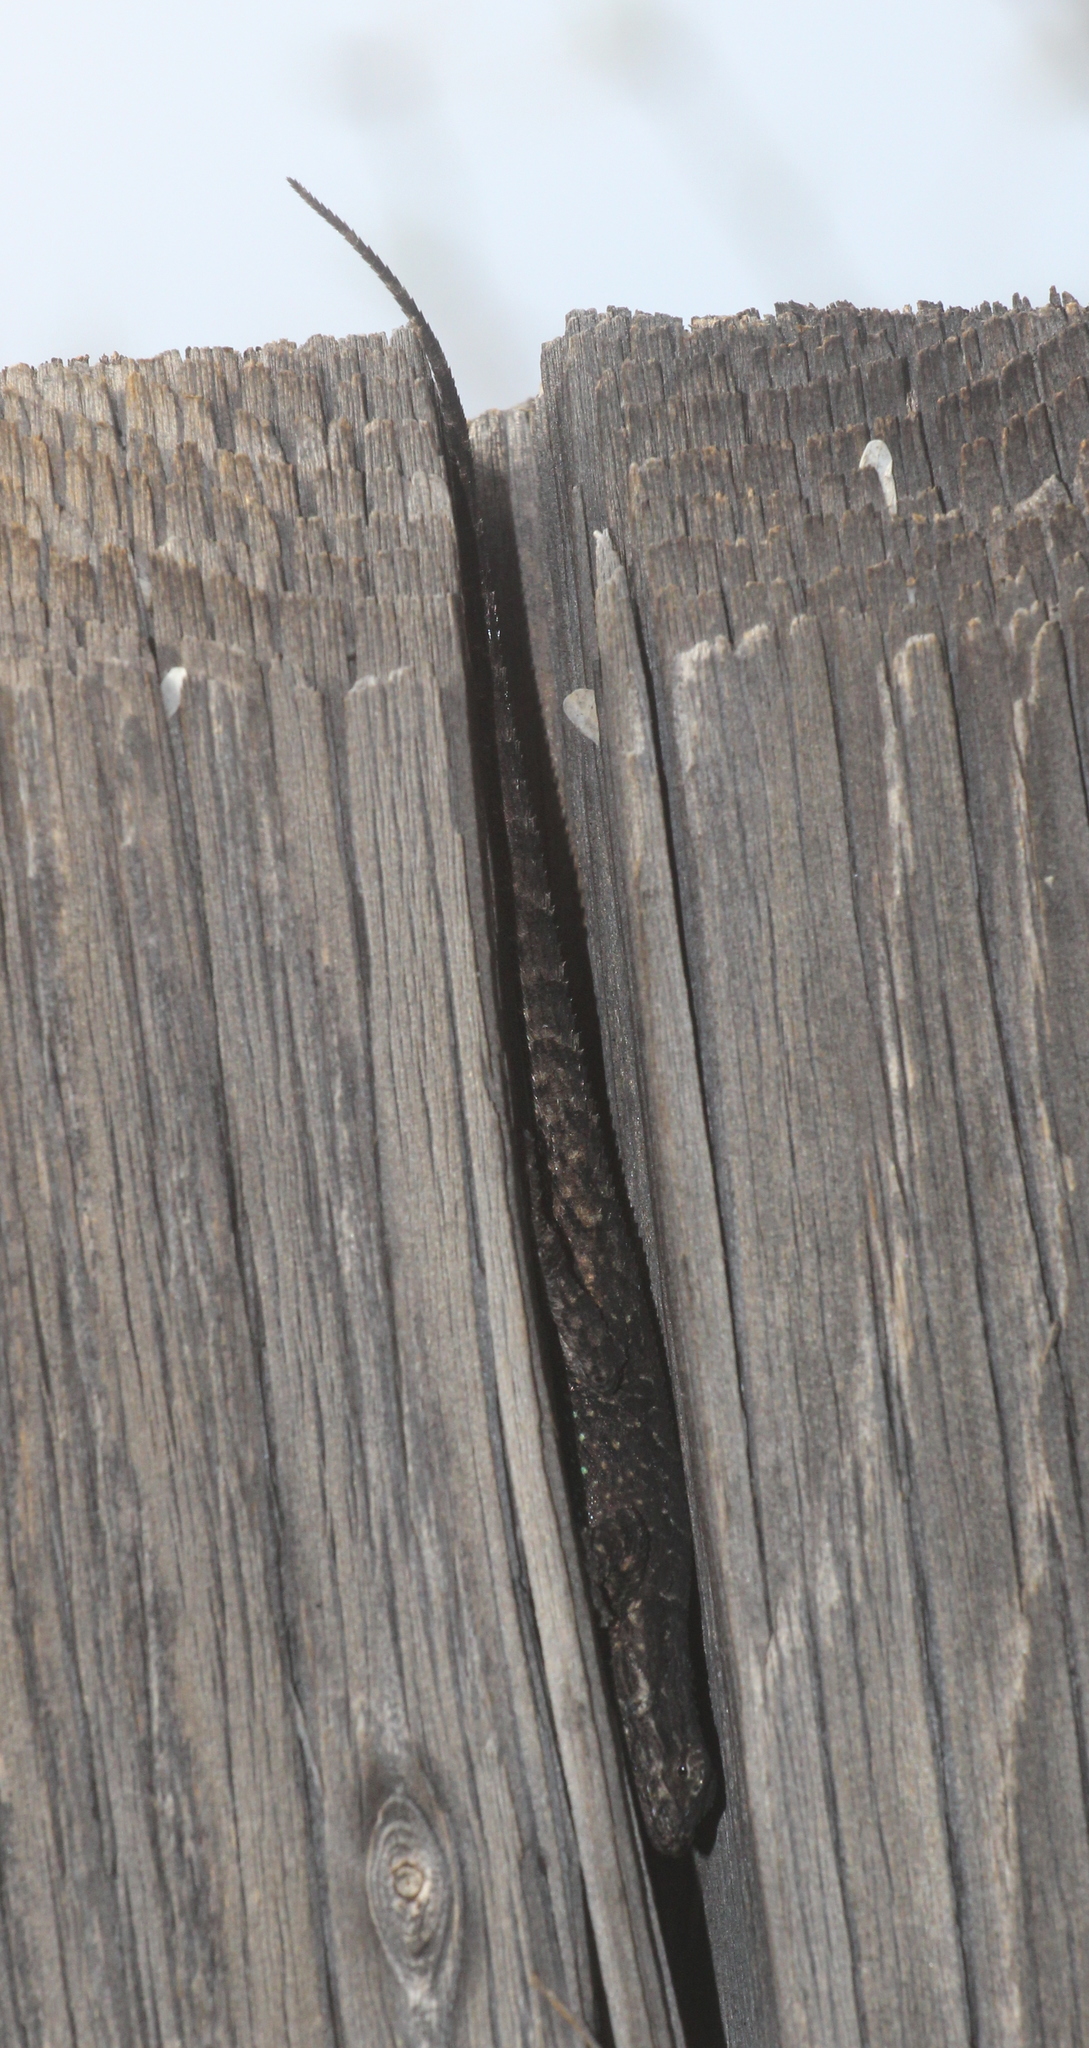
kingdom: Animalia
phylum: Chordata
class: Squamata
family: Phrynosomatidae
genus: Urosaurus
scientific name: Urosaurus ornatus
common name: Ornate tree lizard
